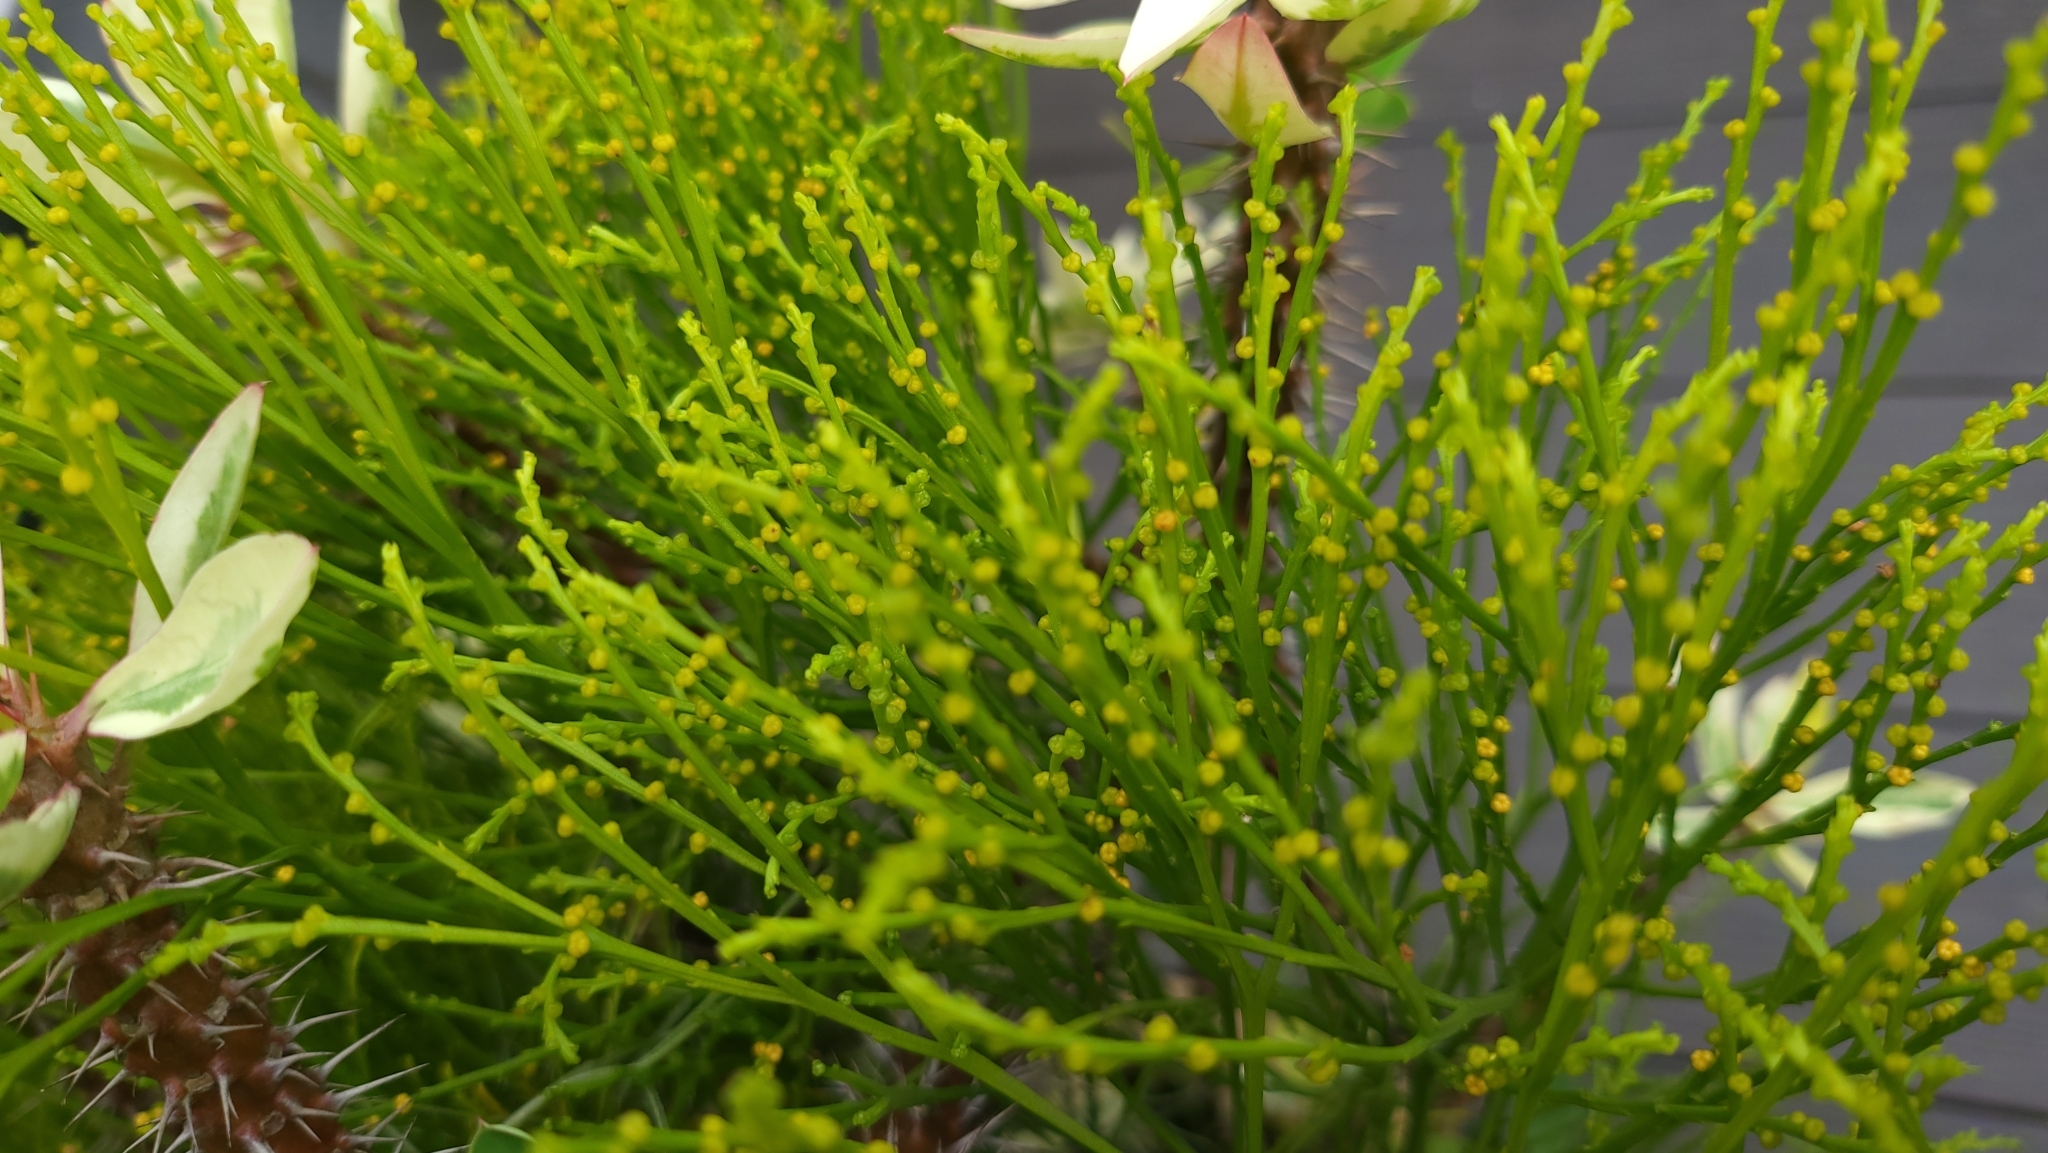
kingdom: Plantae
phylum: Tracheophyta
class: Polypodiopsida
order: Psilotales
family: Psilotaceae
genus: Psilotum
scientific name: Psilotum nudum
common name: Skeleton fork fern
